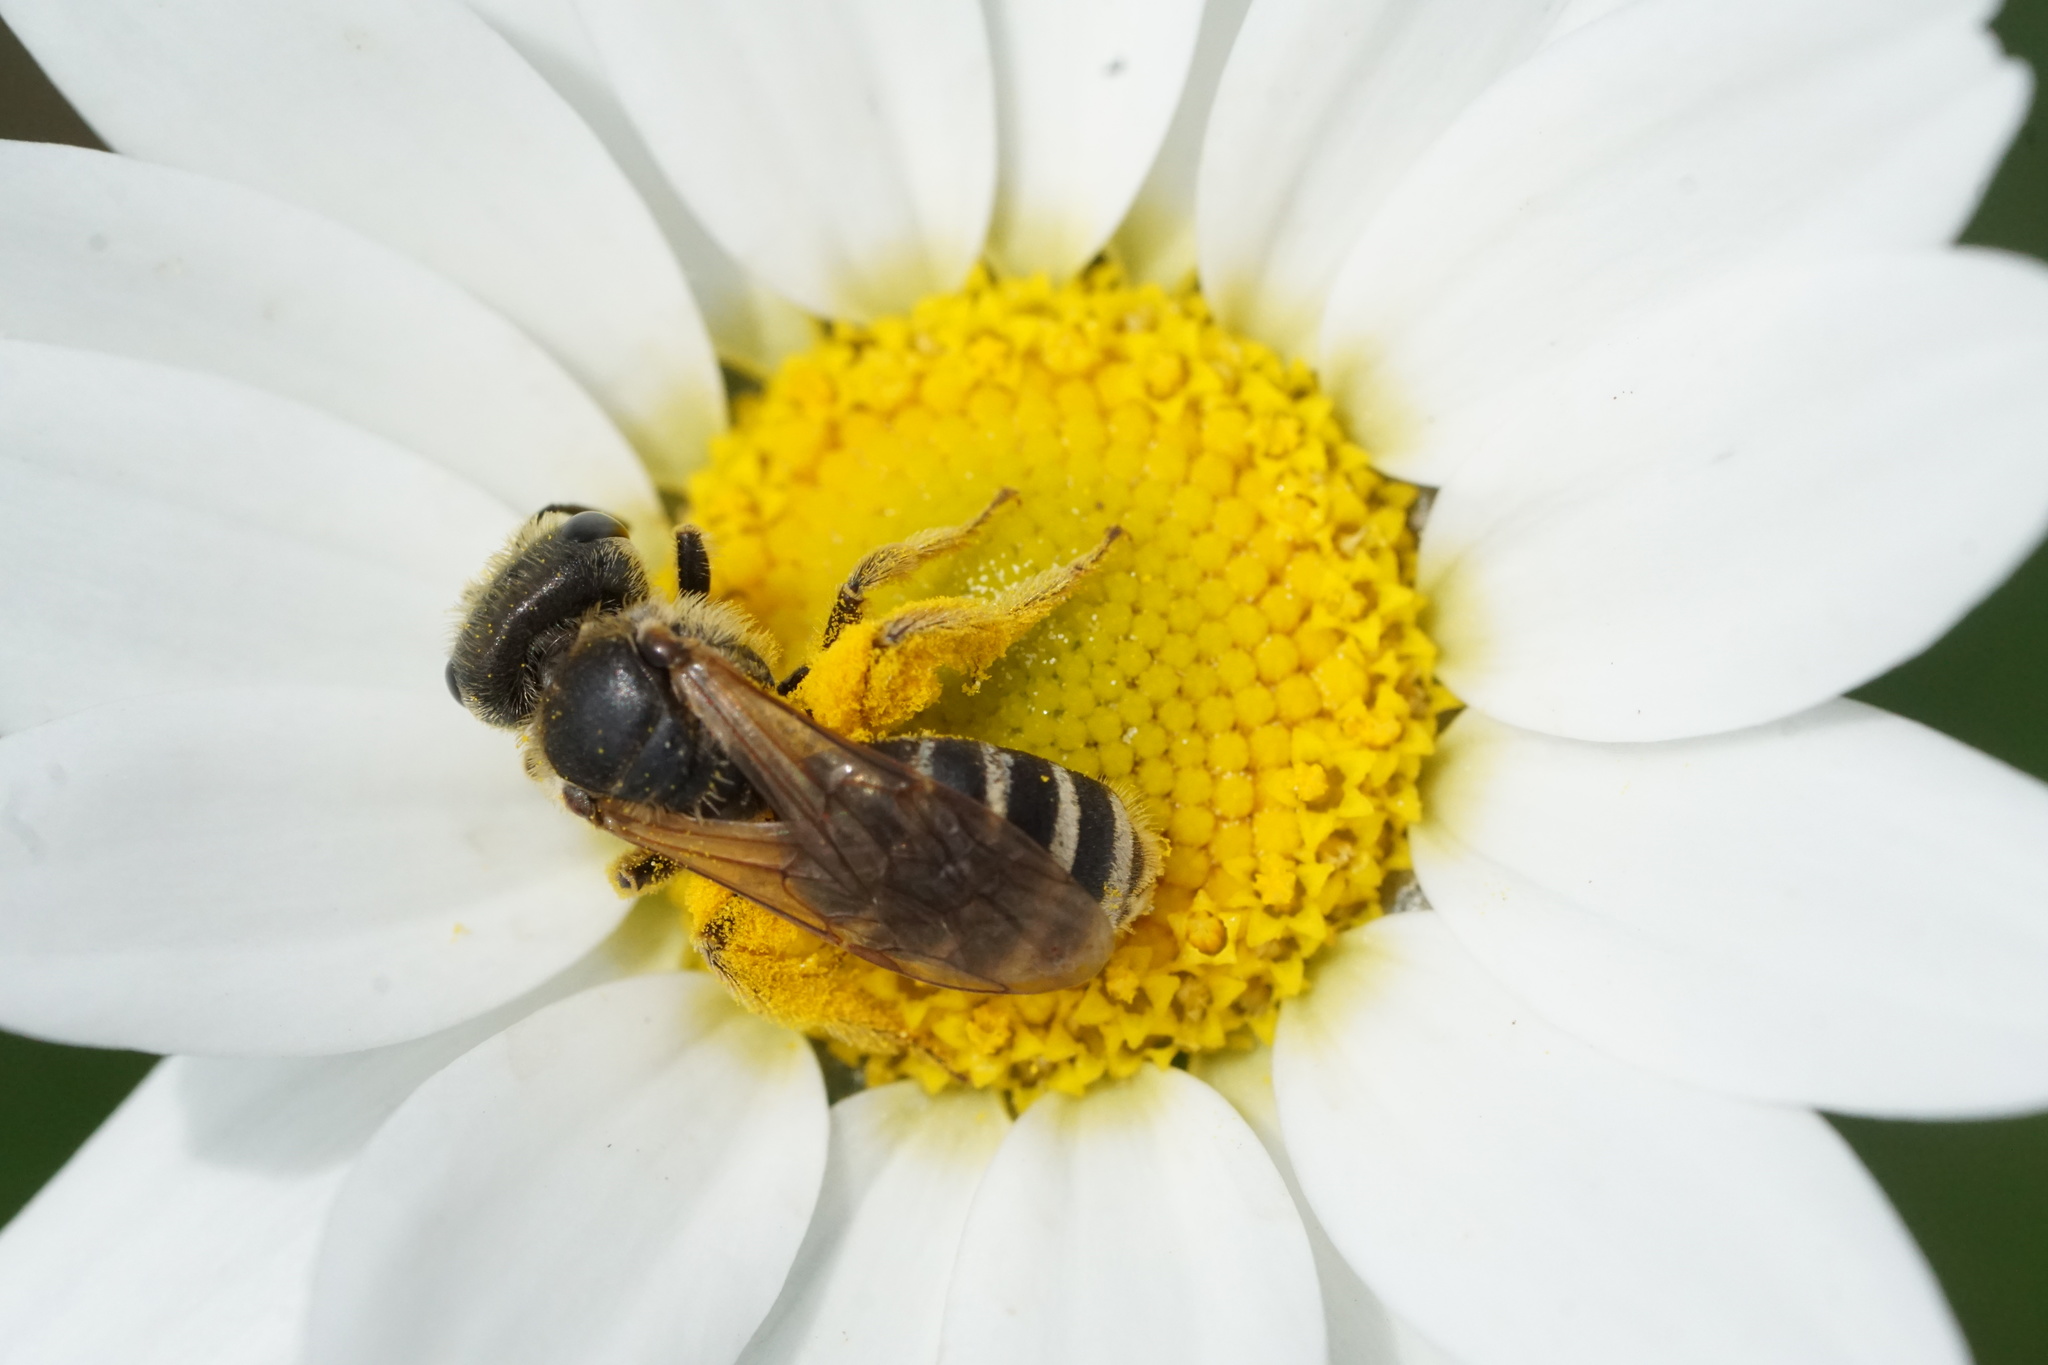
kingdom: Animalia
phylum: Arthropoda
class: Insecta
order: Hymenoptera
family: Halictidae
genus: Halictus
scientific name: Halictus ligatus
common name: Ligated furrow bee
